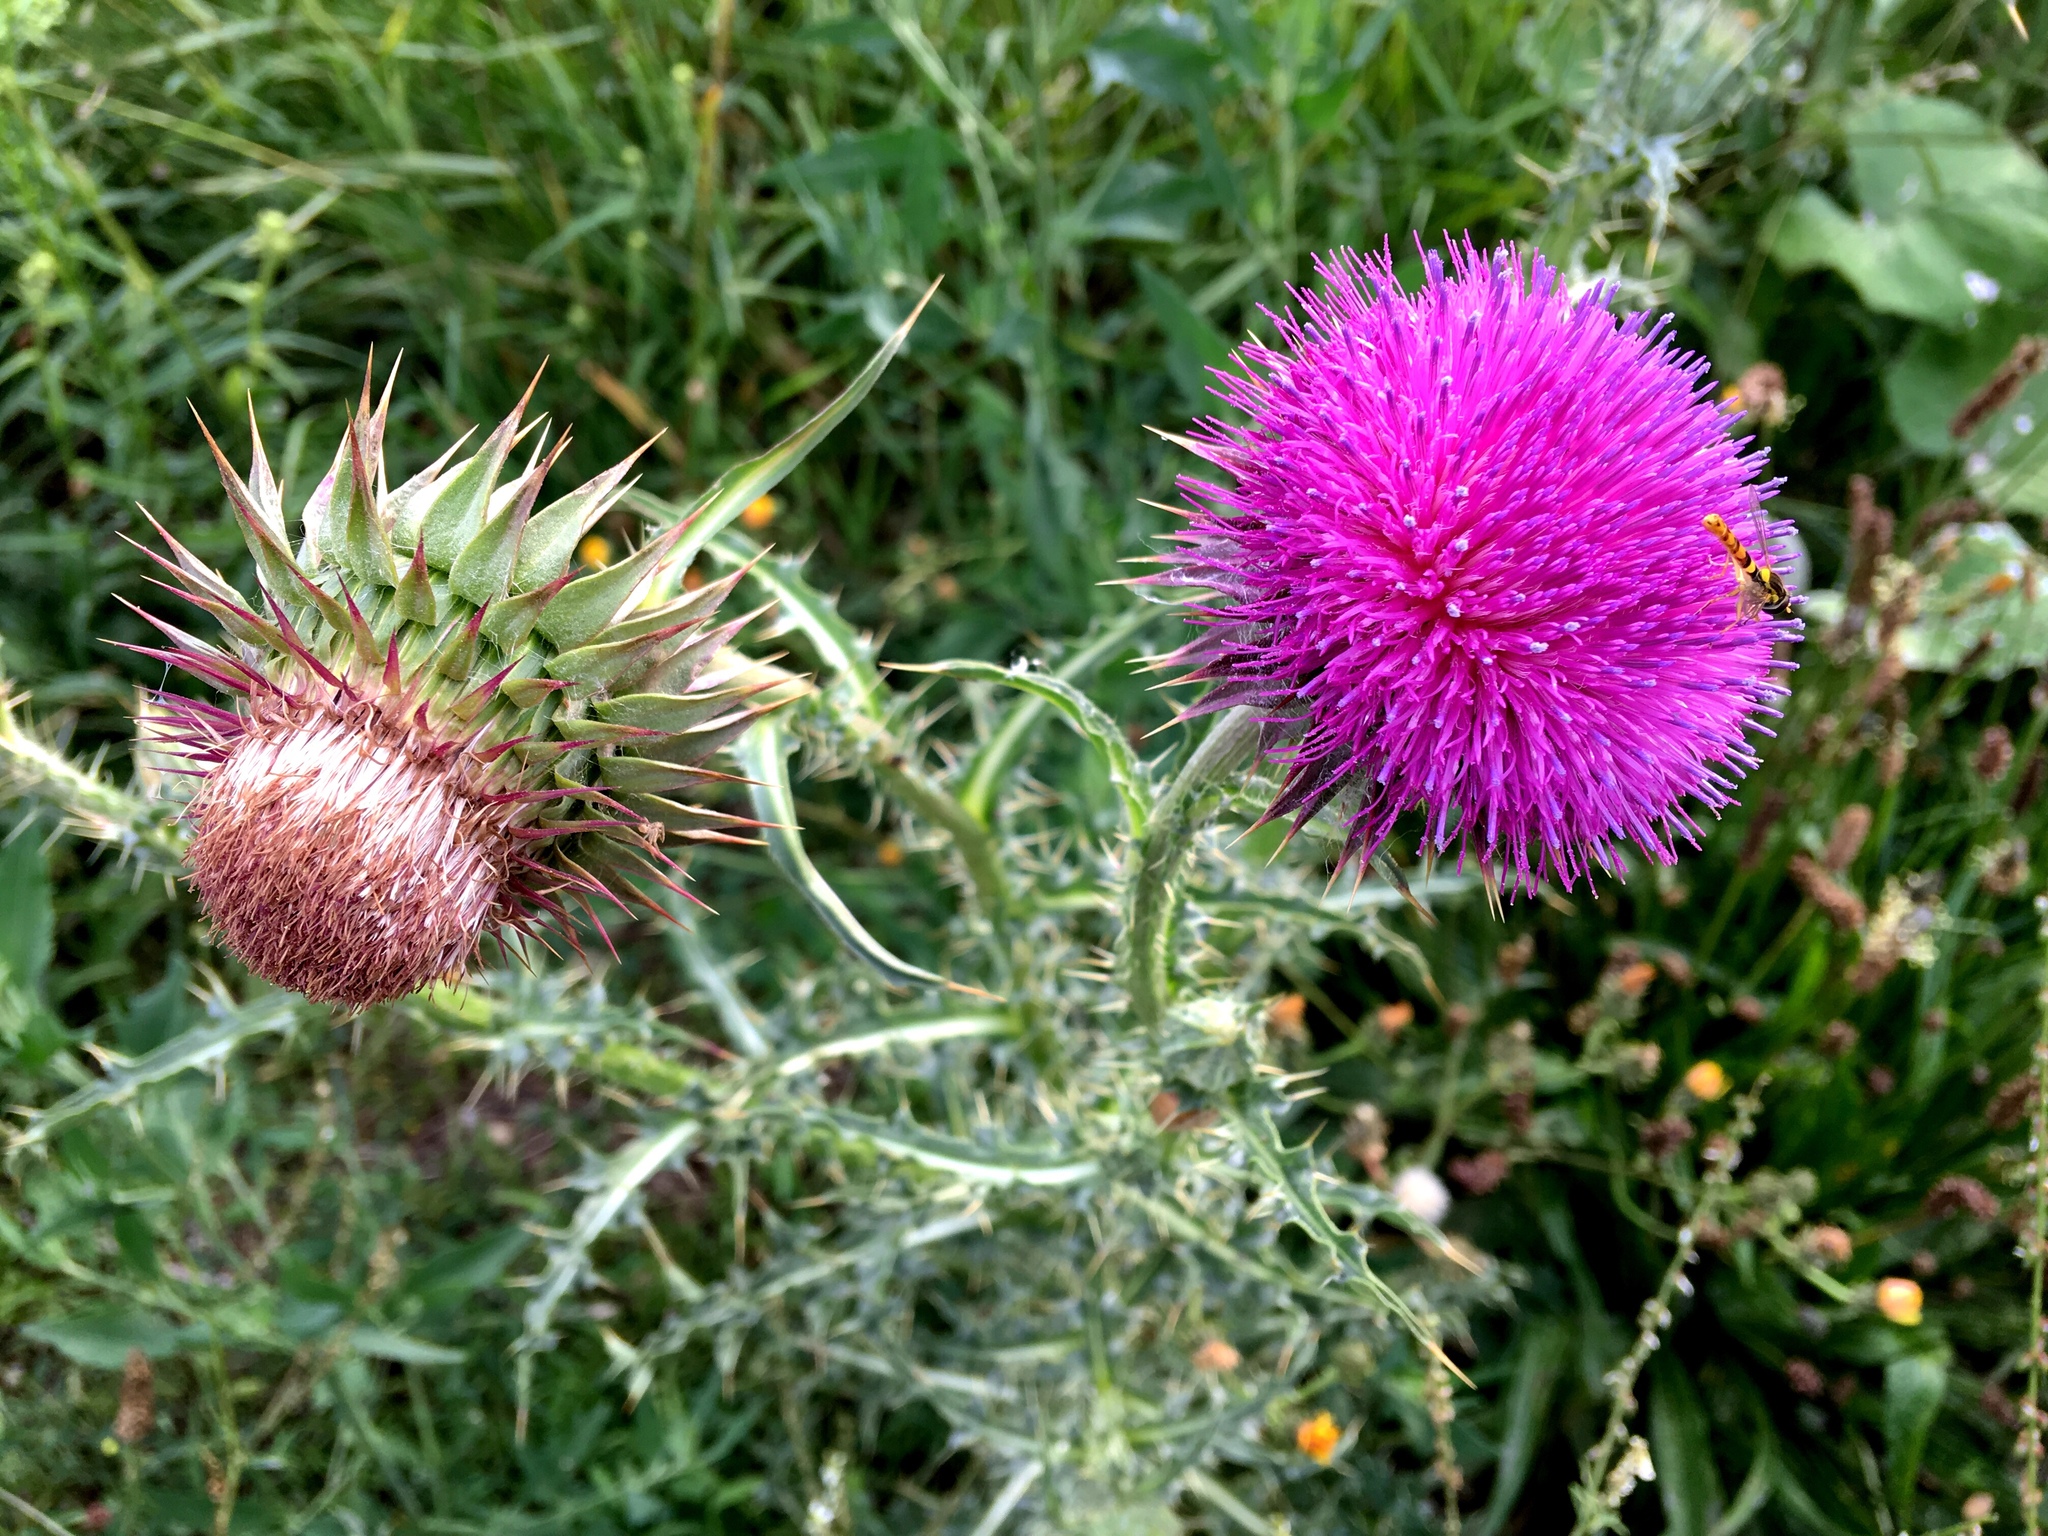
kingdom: Plantae
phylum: Tracheophyta
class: Magnoliopsida
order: Asterales
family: Asteraceae
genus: Cirsium
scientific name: Cirsium vulgare
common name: Bull thistle
